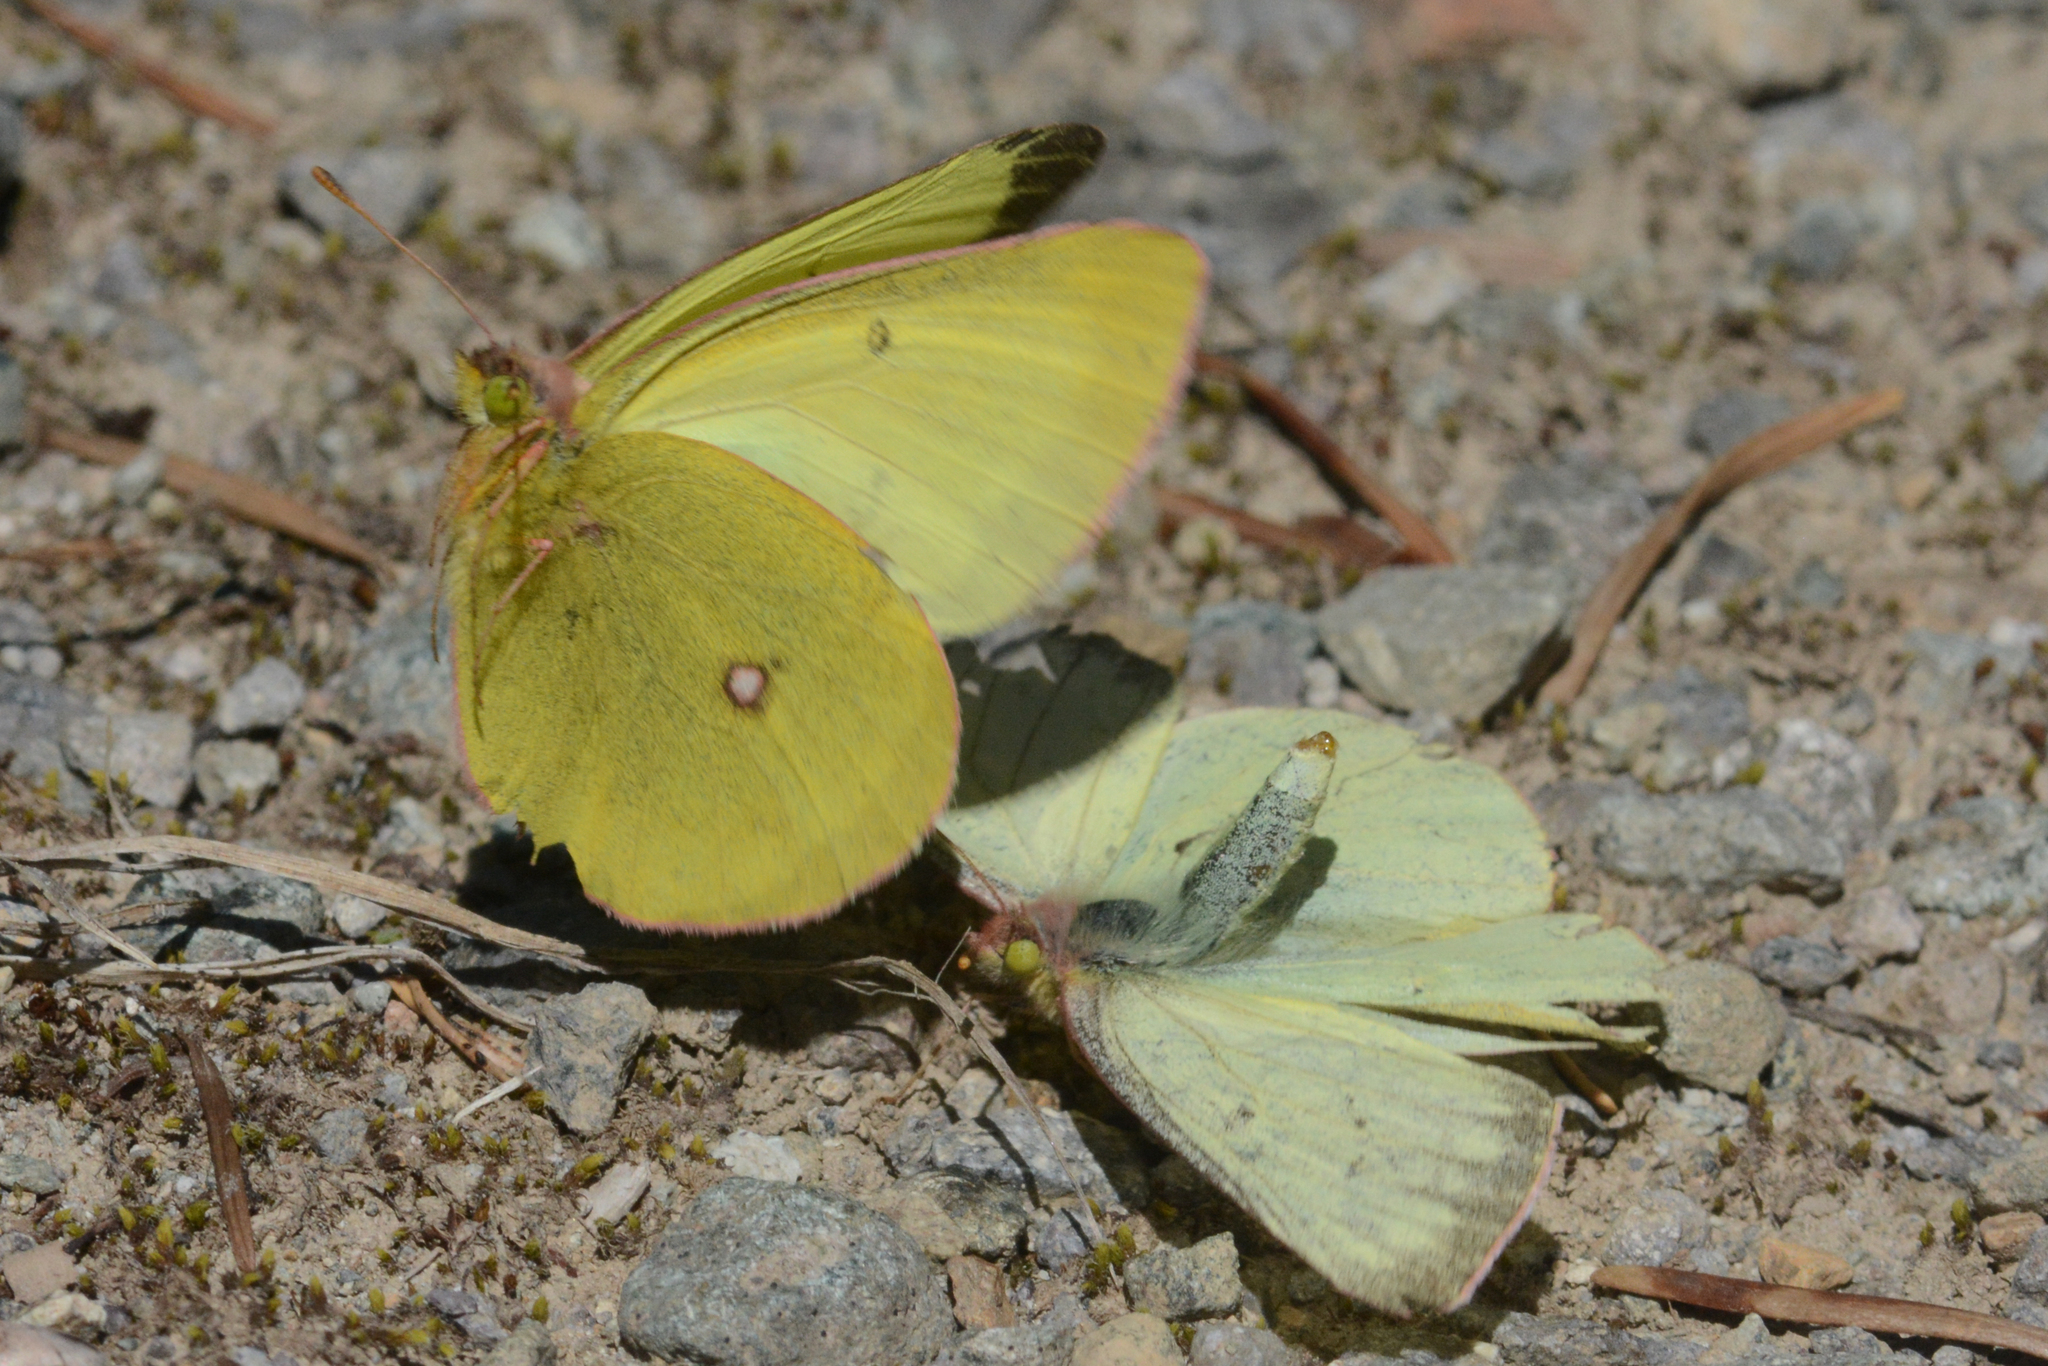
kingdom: Animalia
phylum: Arthropoda
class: Insecta
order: Lepidoptera
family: Pieridae
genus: Colias
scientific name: Colias occidentalis
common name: Western sulphur
